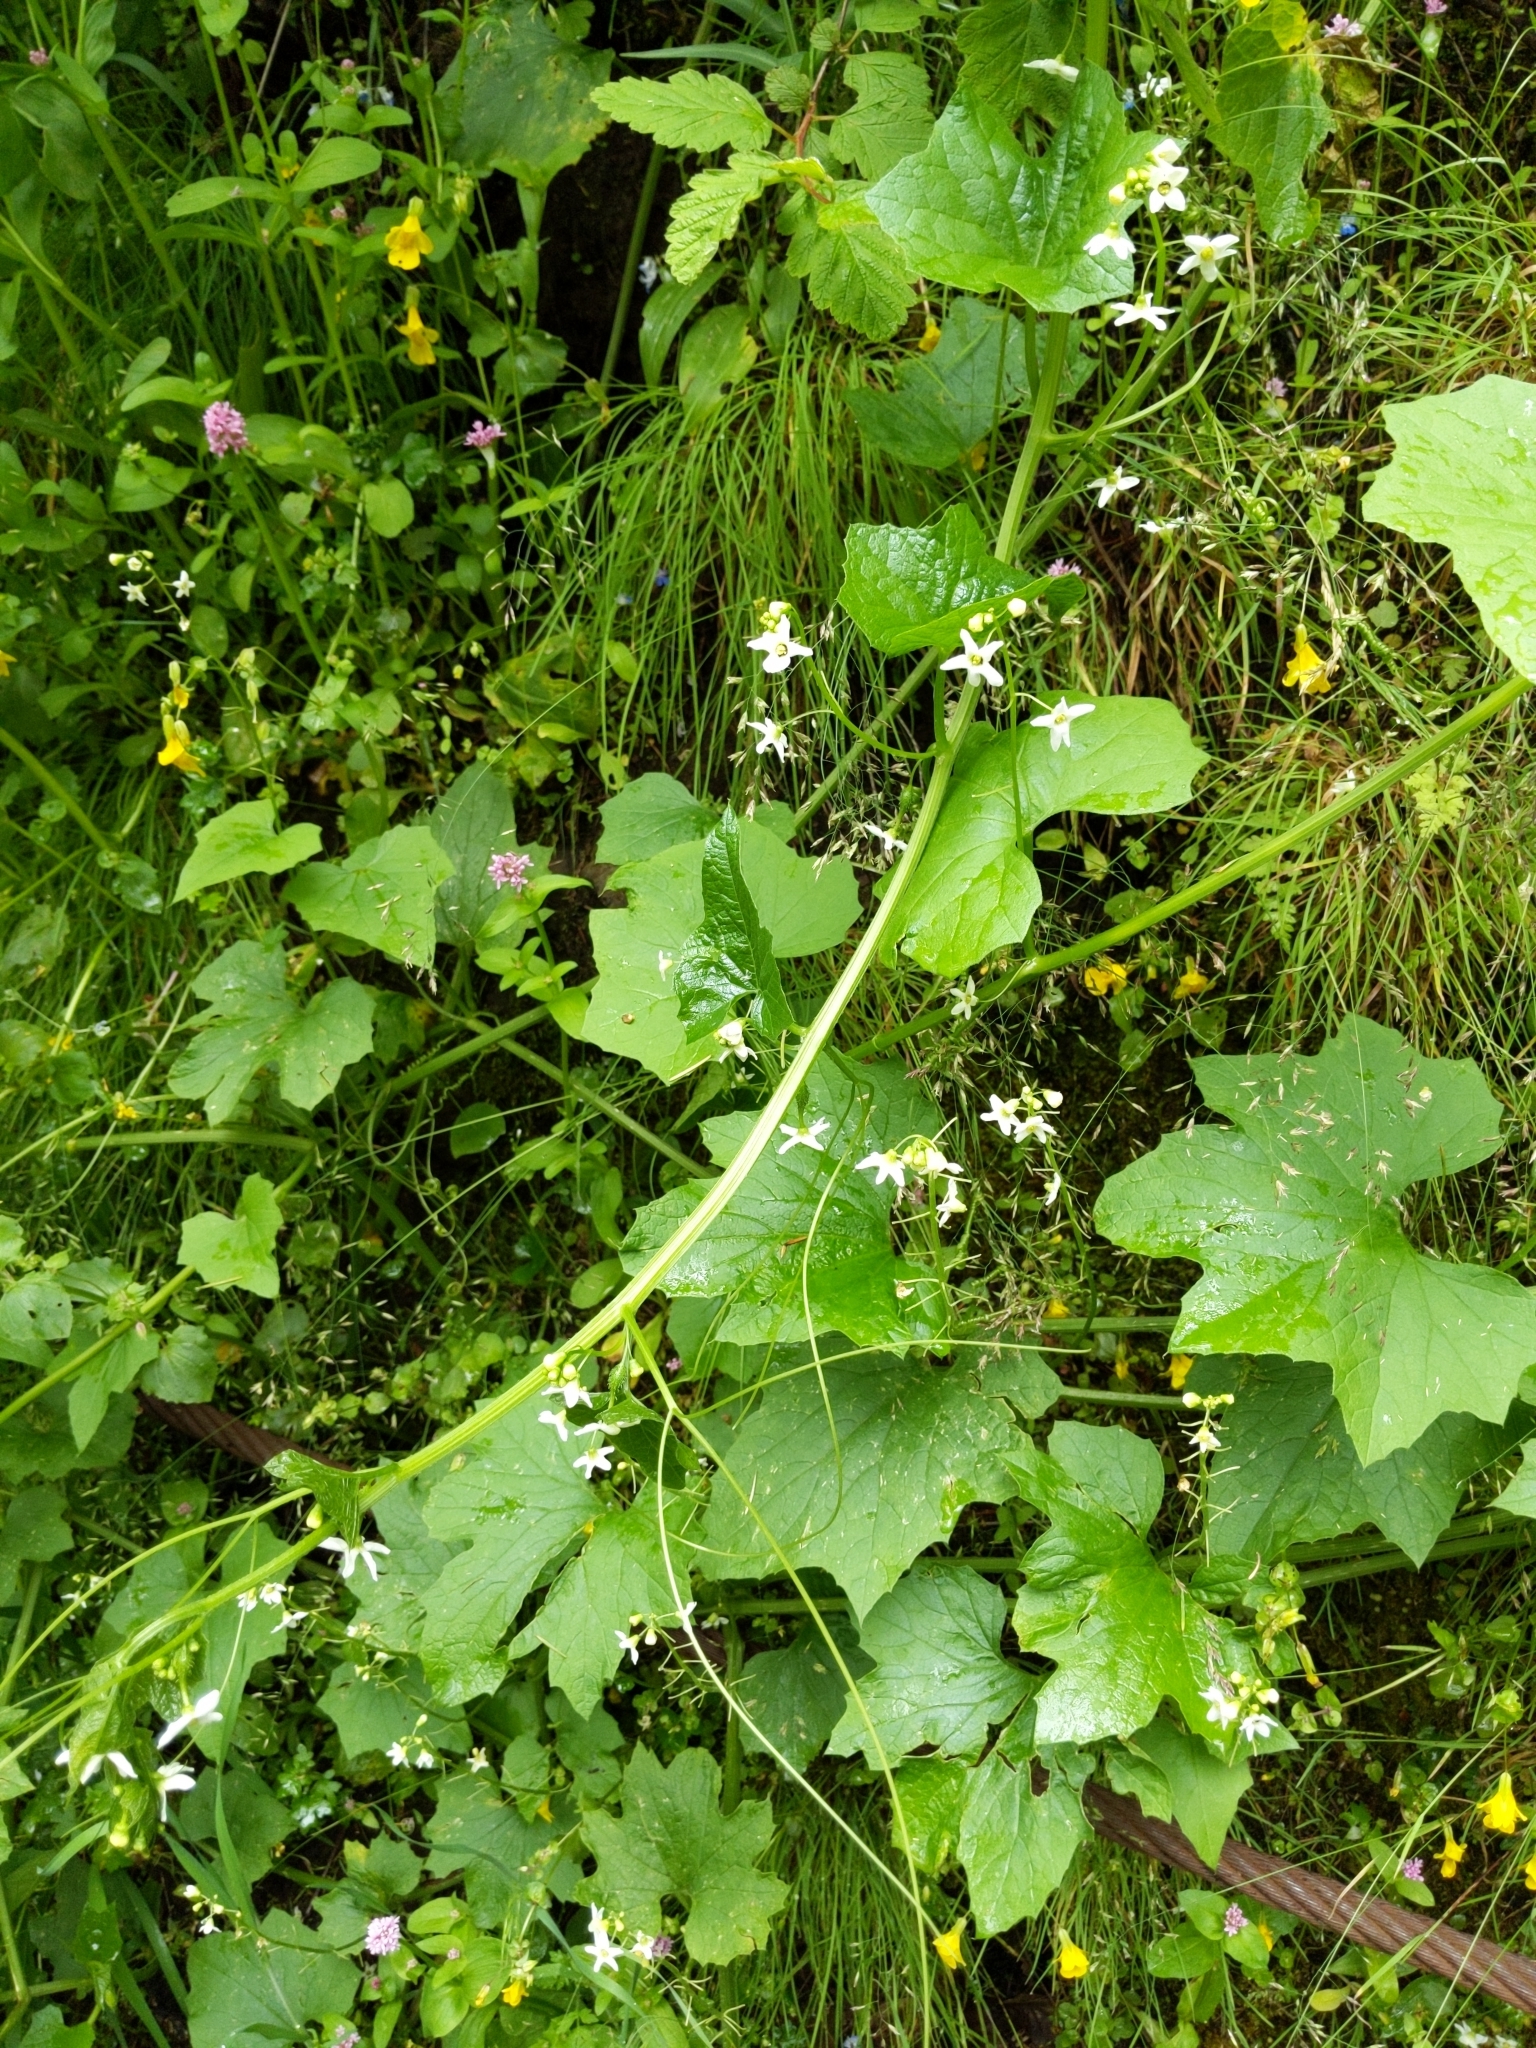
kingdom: Plantae
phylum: Tracheophyta
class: Magnoliopsida
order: Cucurbitales
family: Cucurbitaceae
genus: Marah
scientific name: Marah oregana
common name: Coastal manroot
